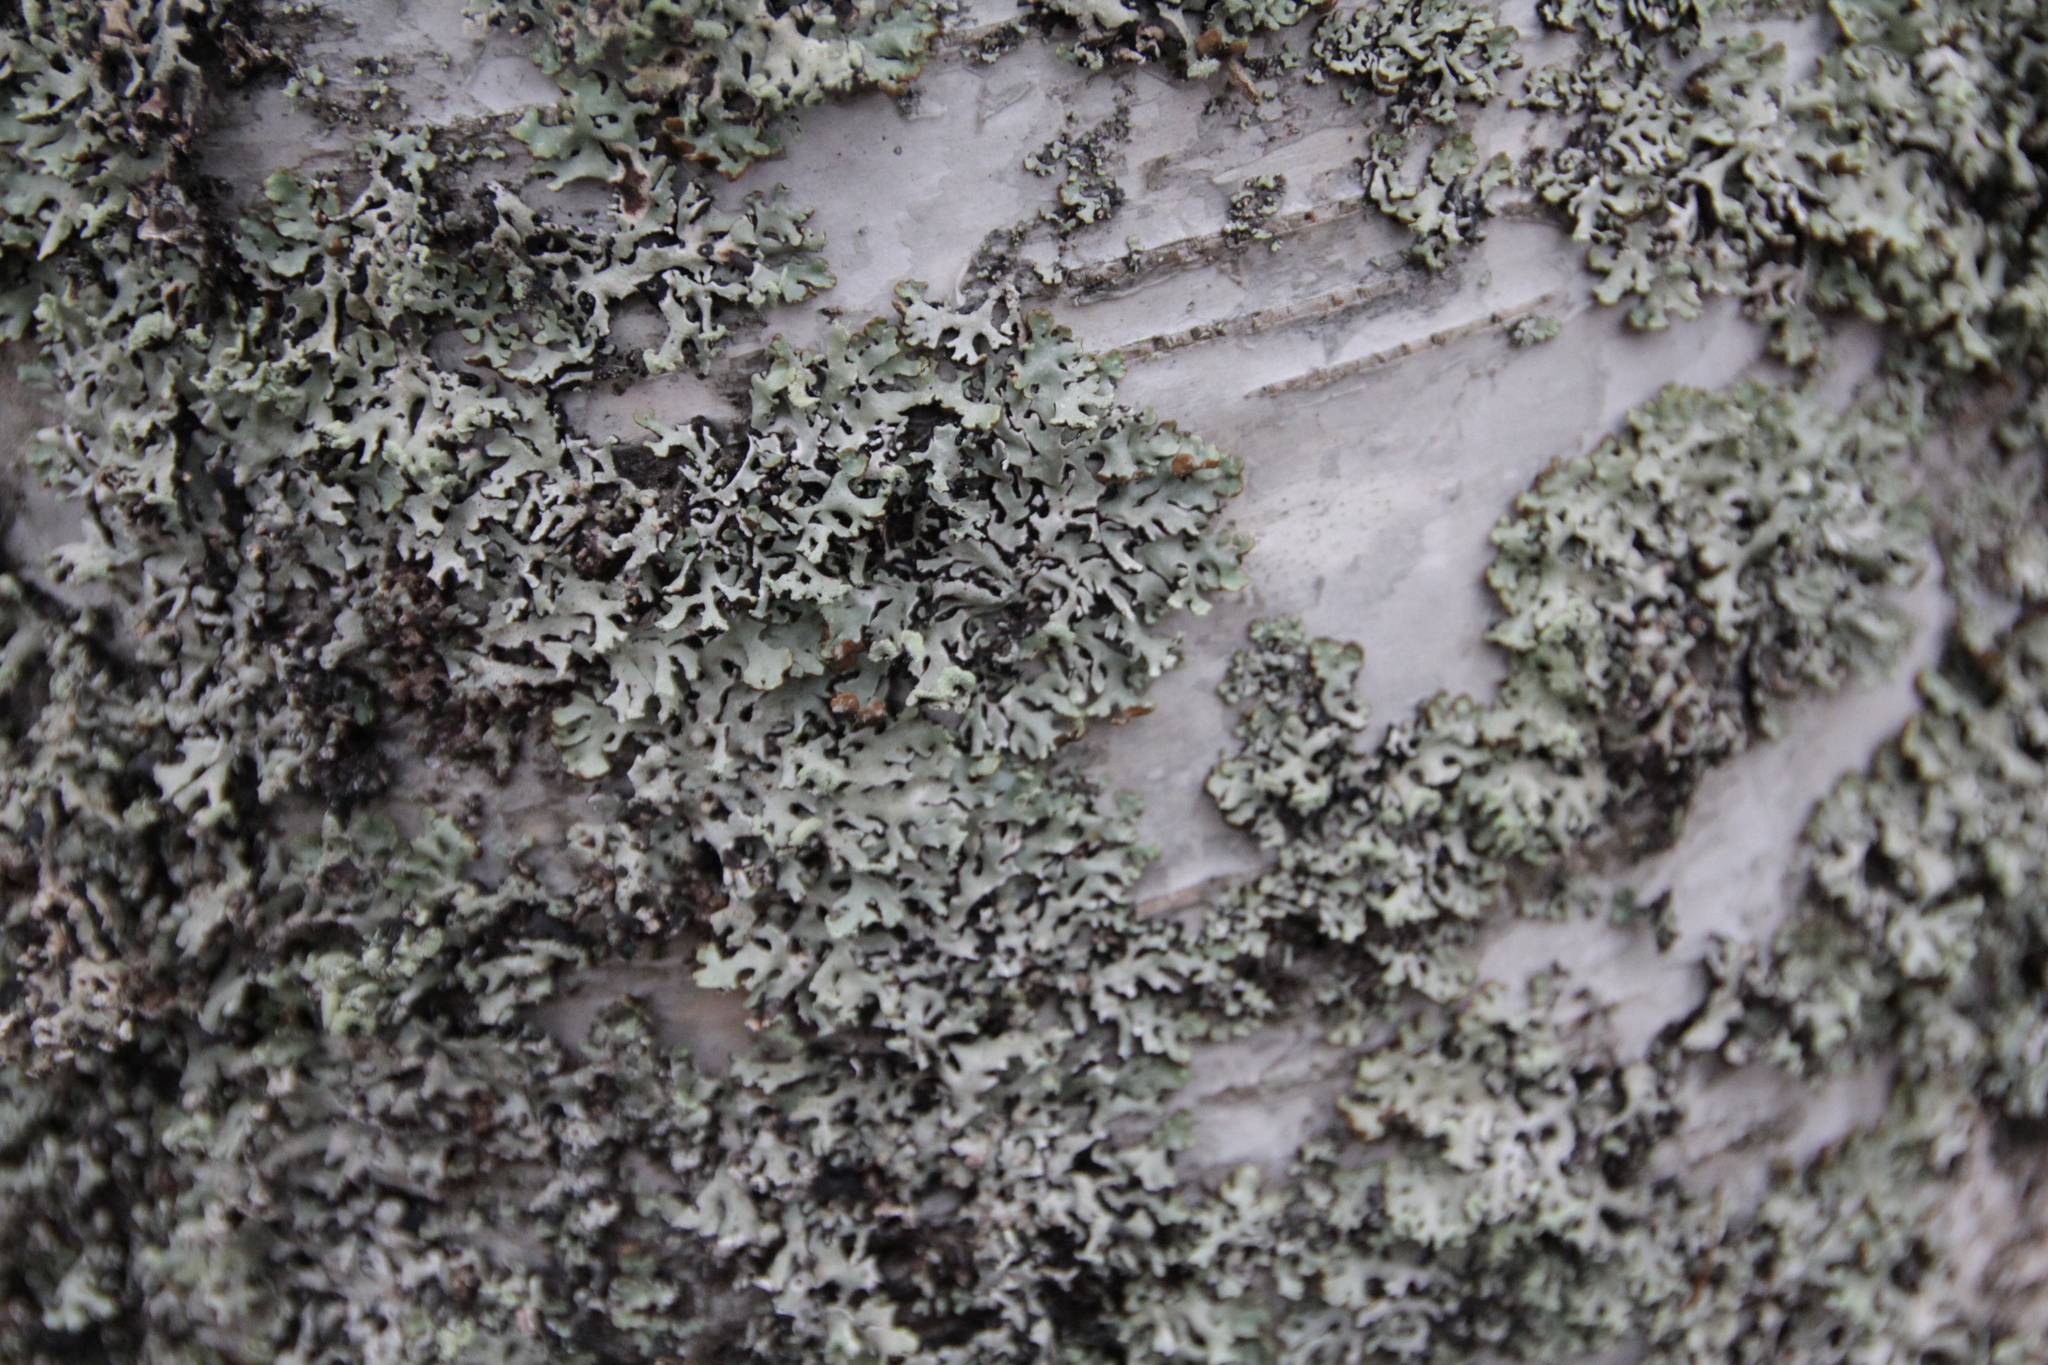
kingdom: Fungi
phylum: Ascomycota
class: Lecanoromycetes
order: Lecanorales
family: Parmeliaceae
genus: Hypogymnia
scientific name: Hypogymnia physodes
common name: Dark crottle
